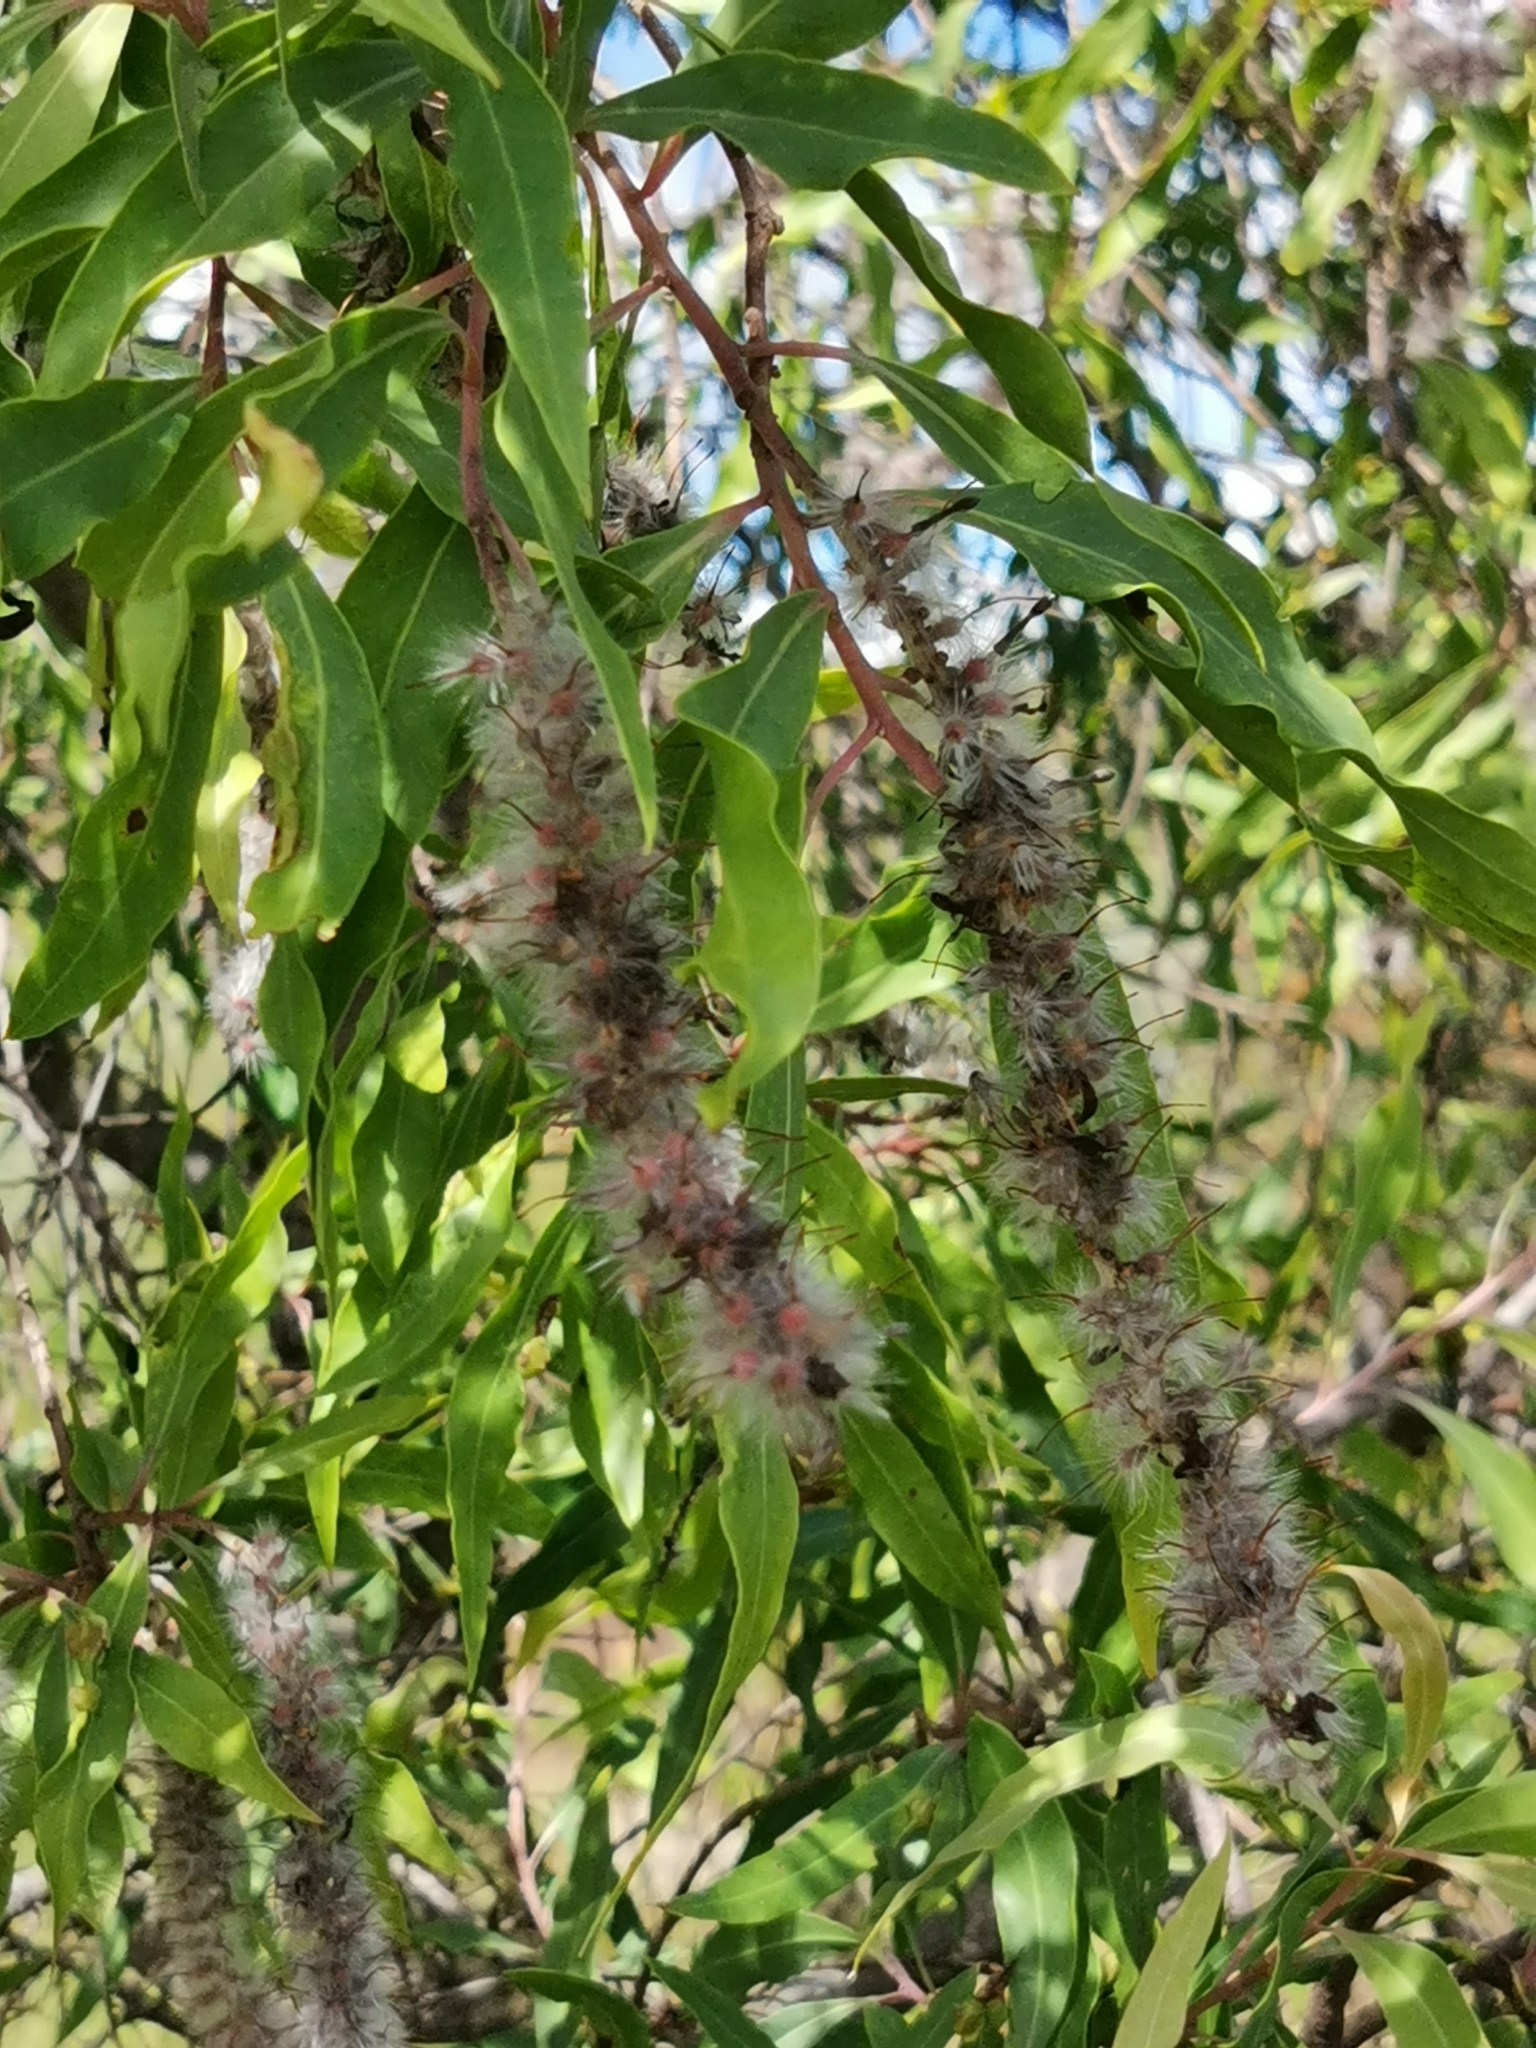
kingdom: Plantae
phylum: Tracheophyta
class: Magnoliopsida
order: Proteales
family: Proteaceae
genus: Faurea
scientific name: Faurea saligna
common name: African bean
